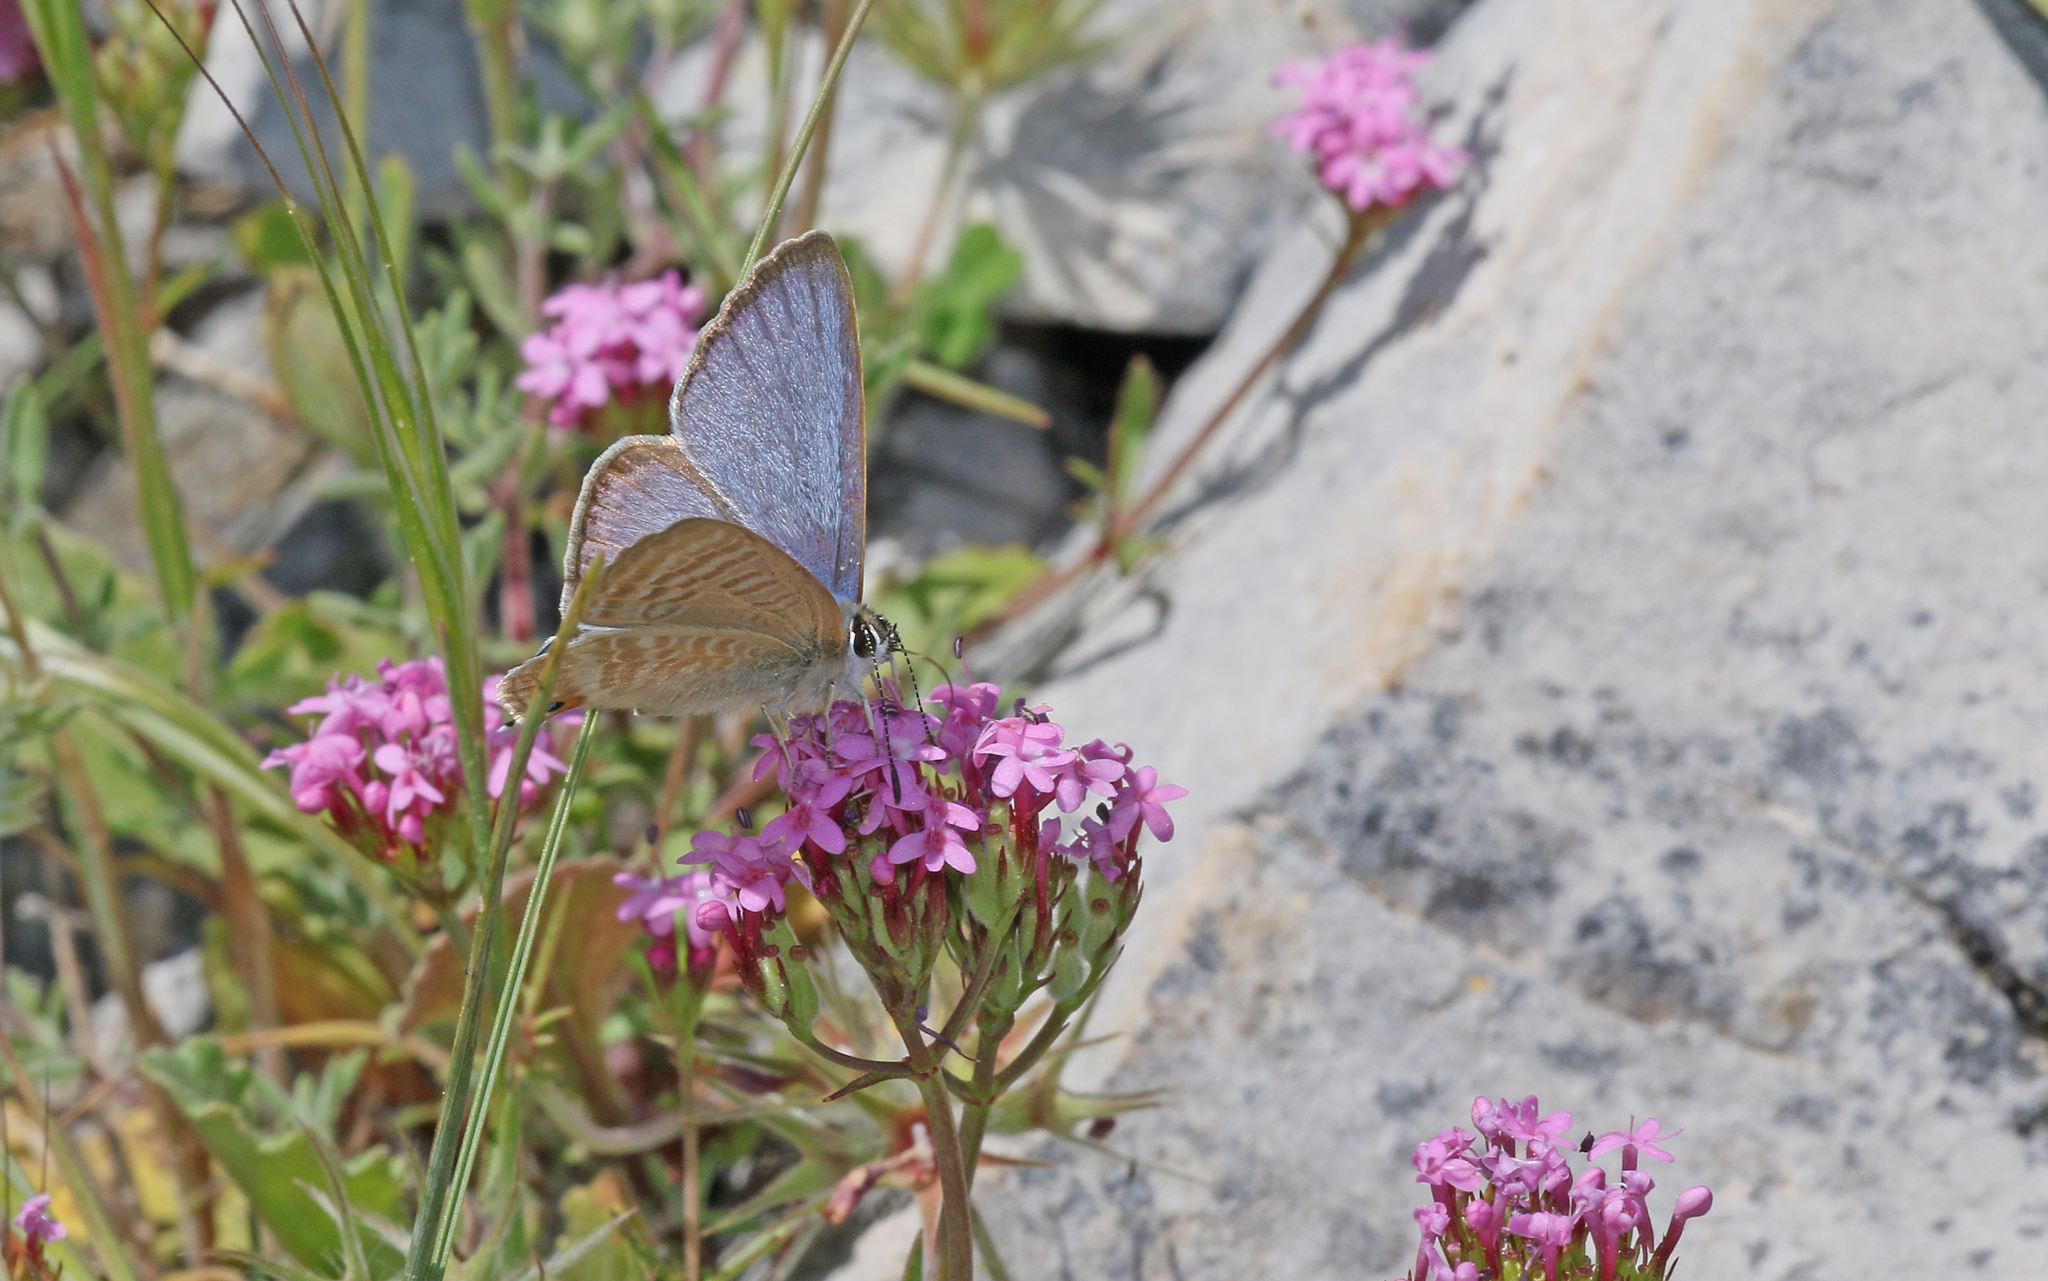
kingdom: Animalia
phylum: Arthropoda
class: Insecta
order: Lepidoptera
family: Lycaenidae
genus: Lampides
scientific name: Lampides boeticus
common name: Long-tailed blue
